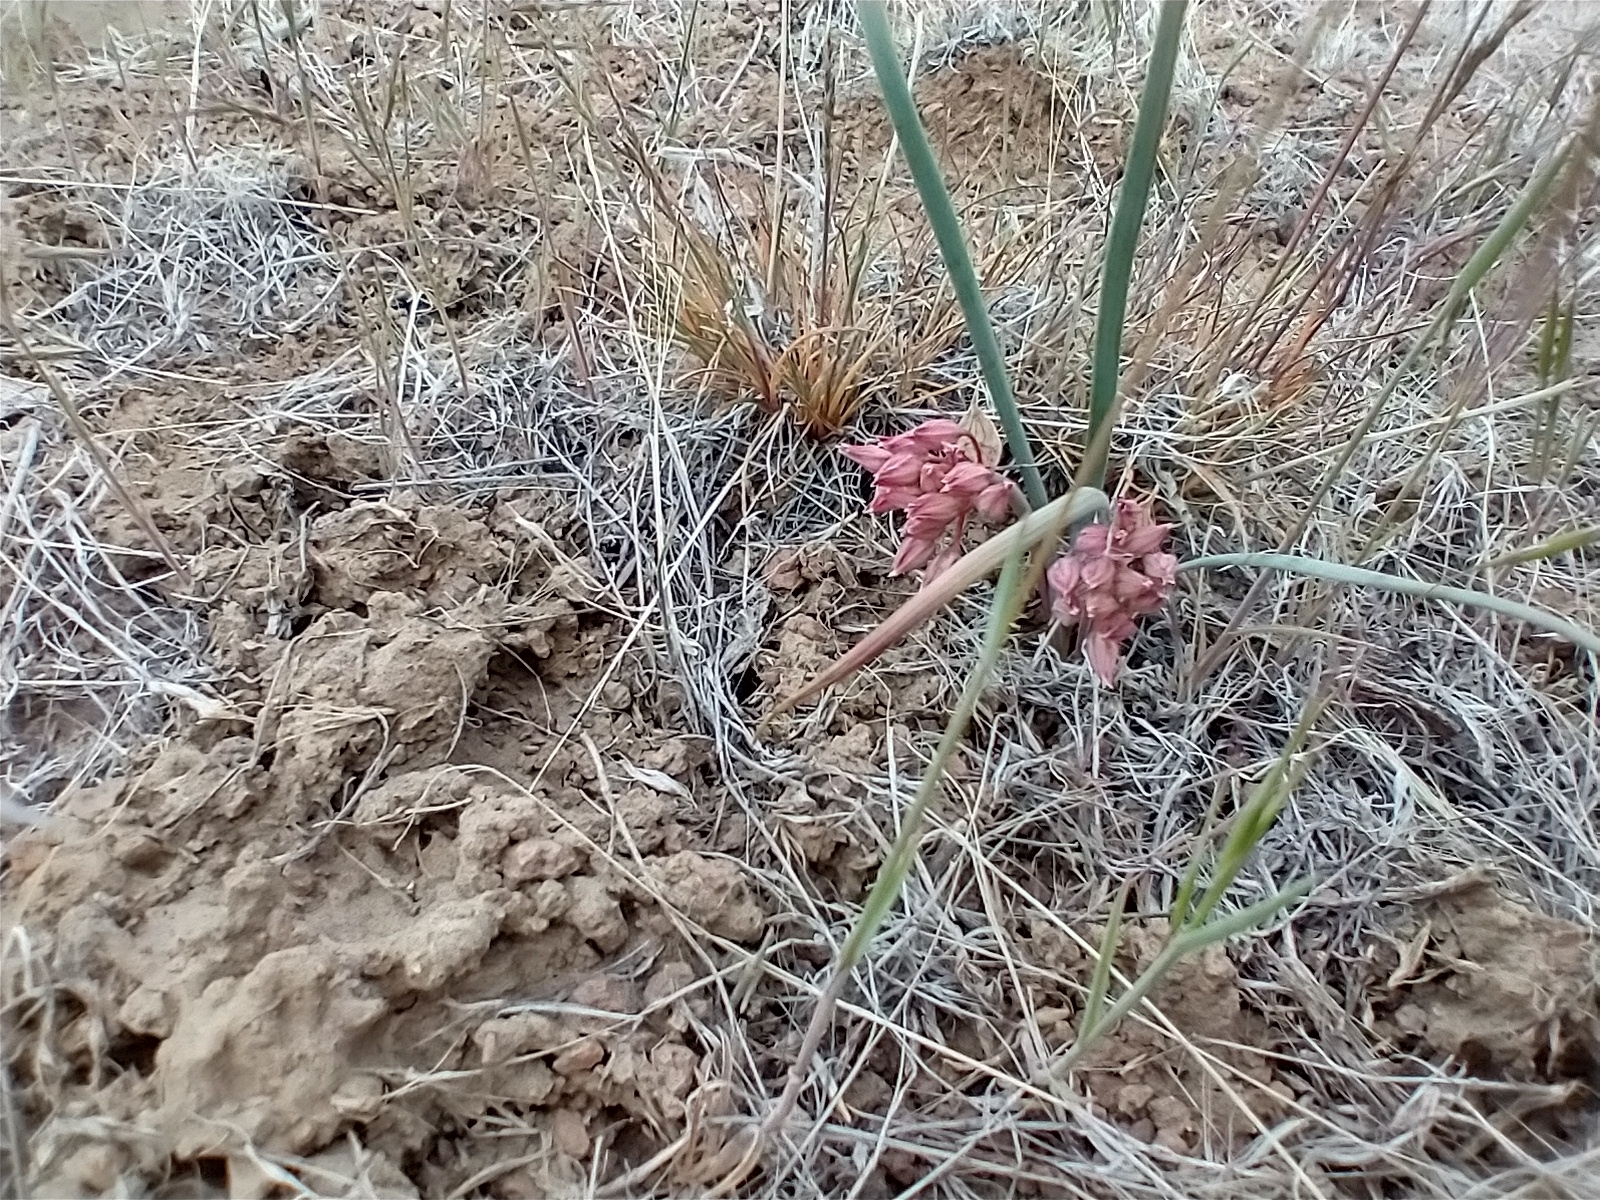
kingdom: Plantae
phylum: Tracheophyta
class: Liliopsida
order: Asparagales
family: Amaryllidaceae
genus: Allium
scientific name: Allium punctum
